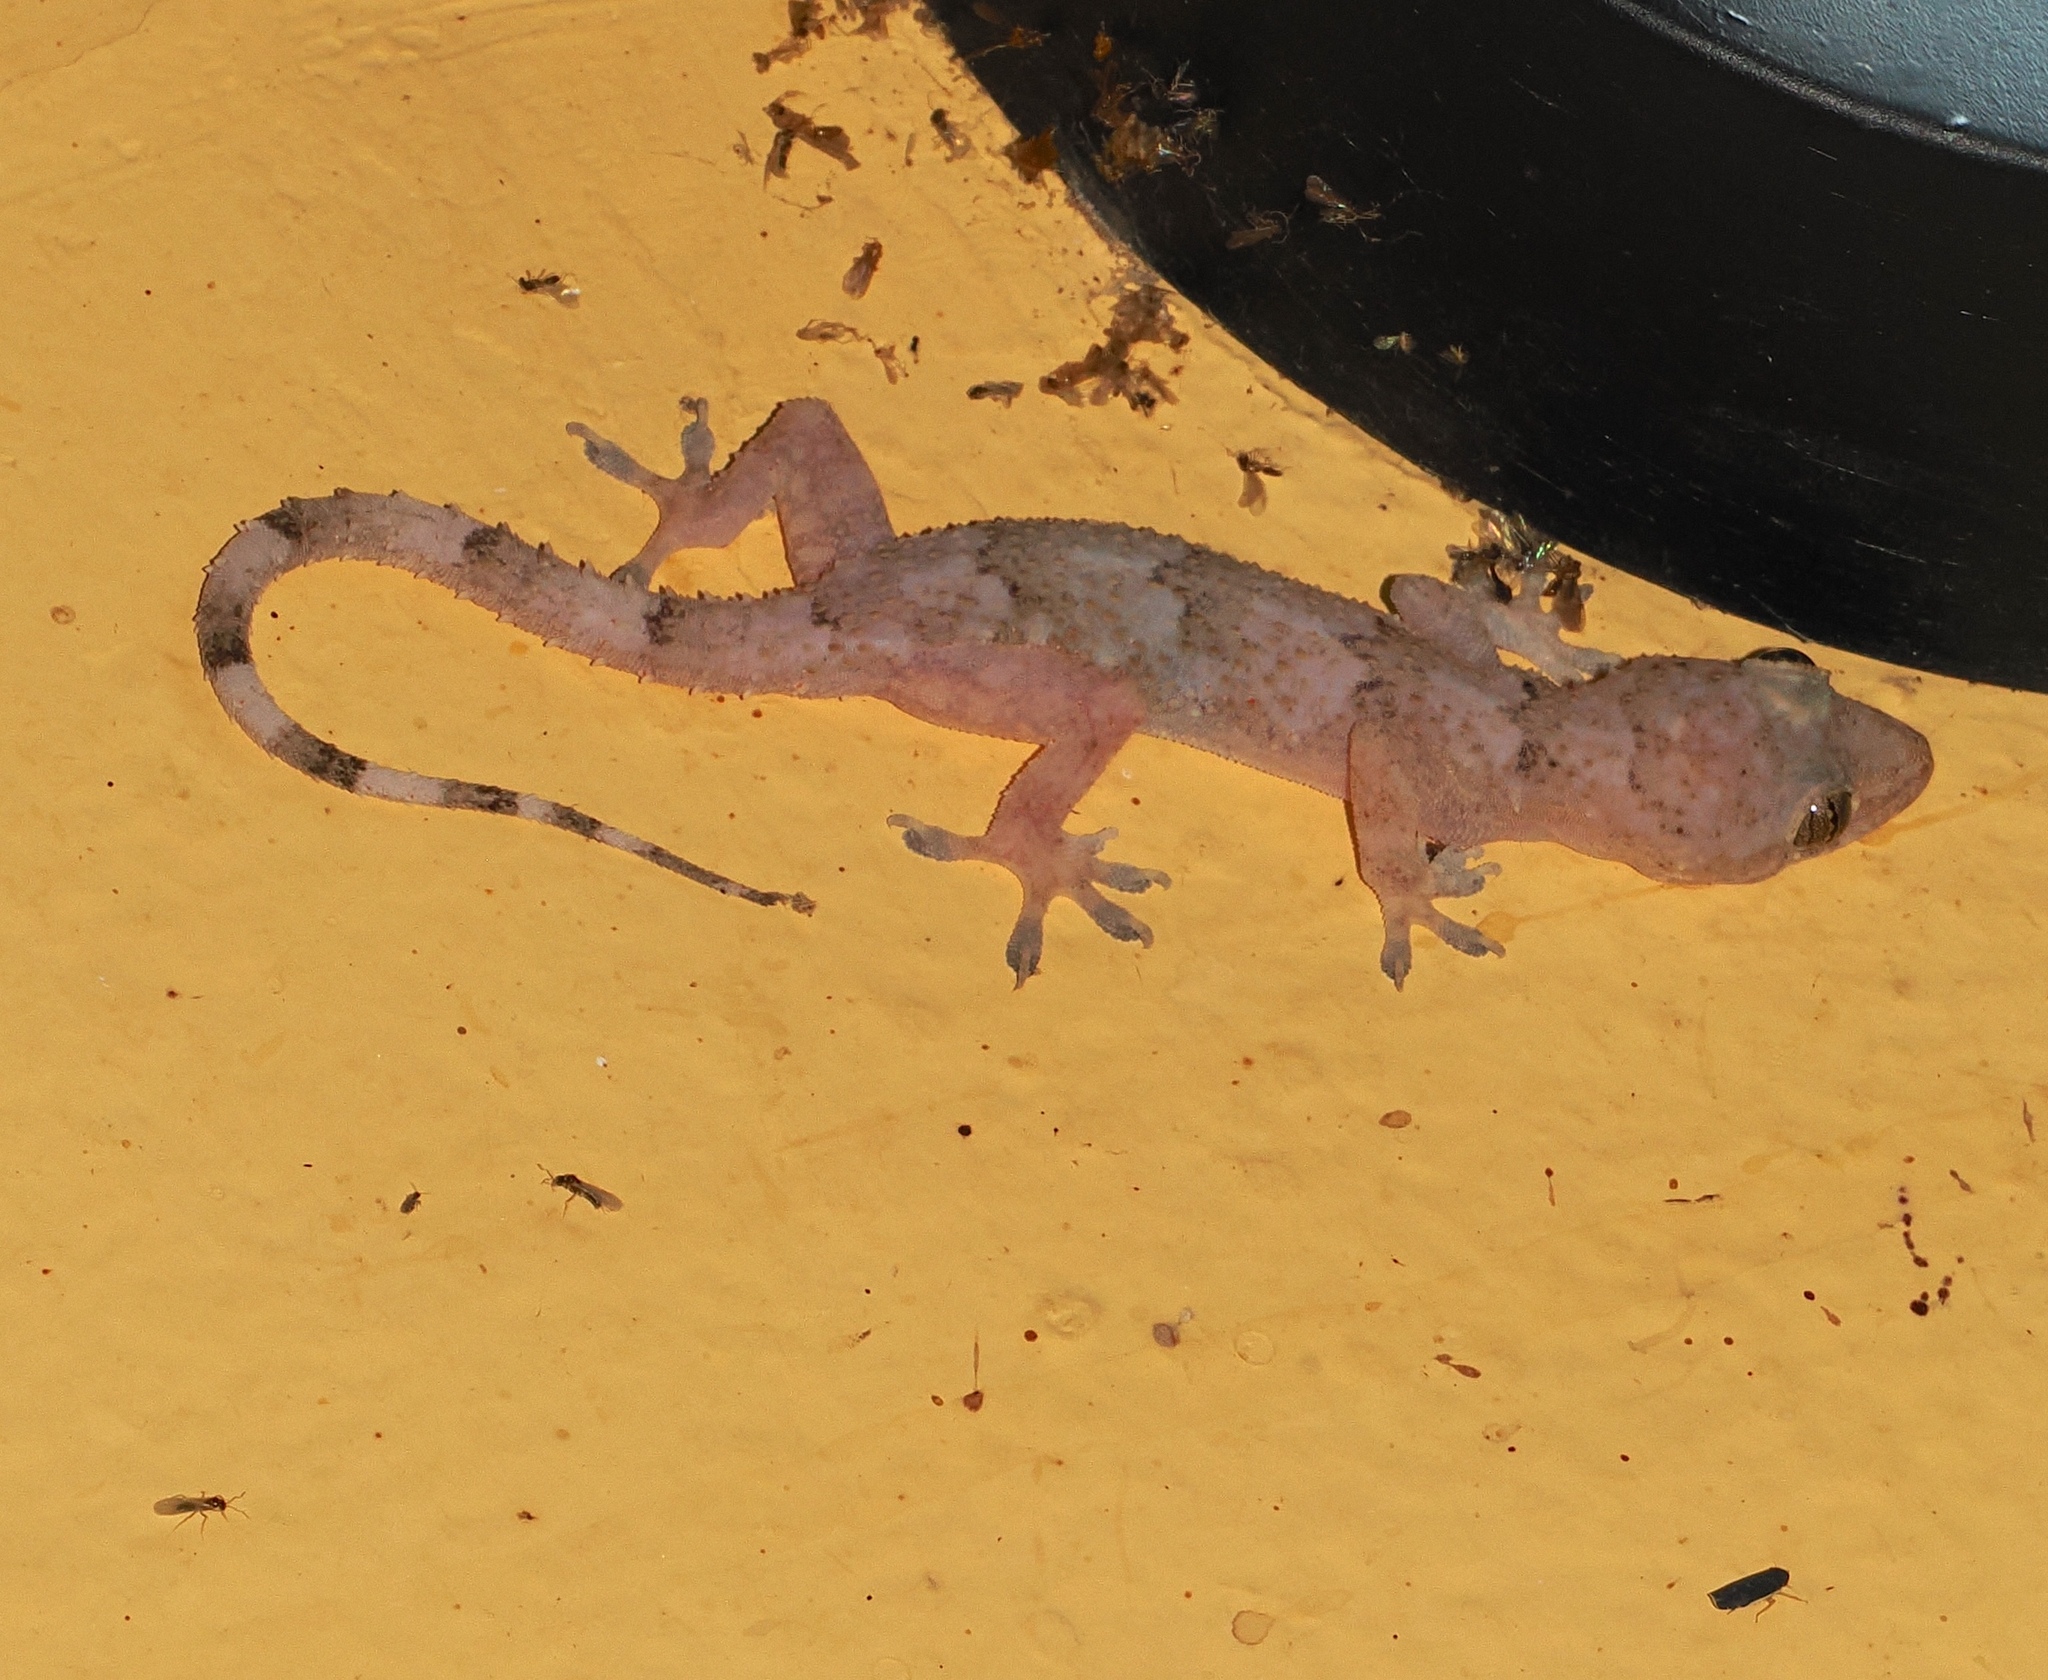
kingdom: Animalia
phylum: Chordata
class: Squamata
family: Gekkonidae
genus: Hemidactylus
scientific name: Hemidactylus mabouia
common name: House gecko
